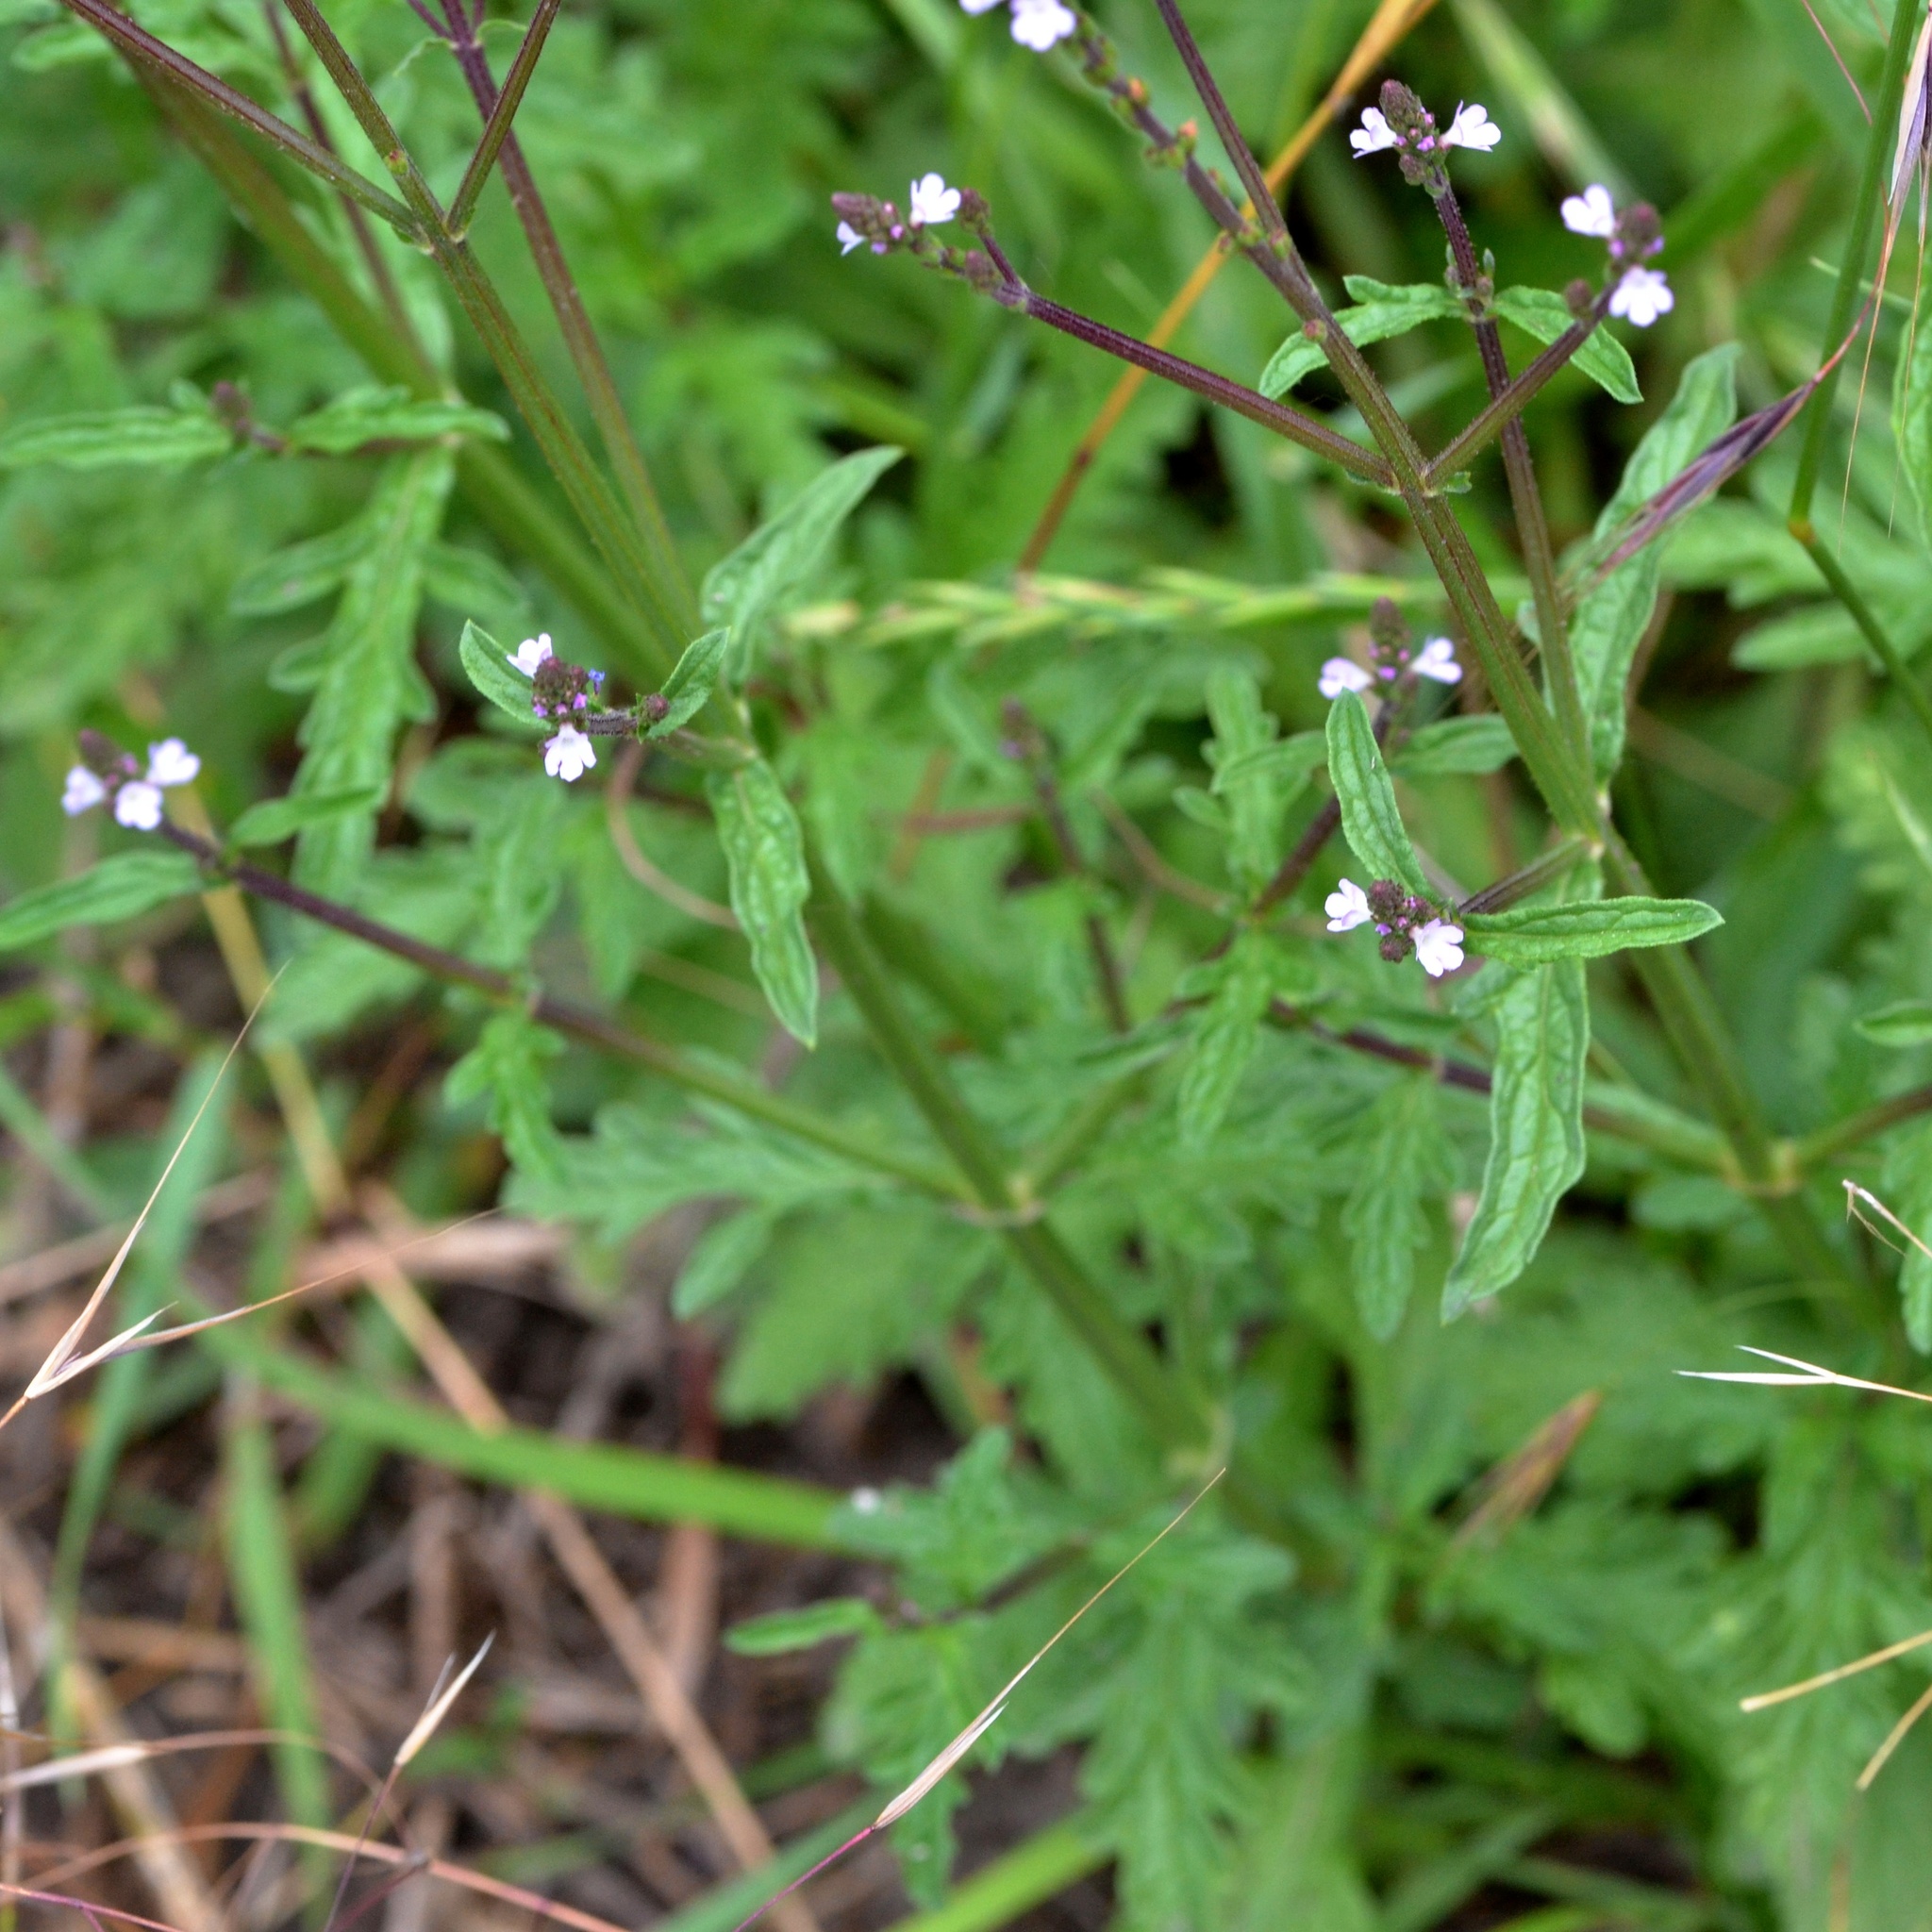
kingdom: Plantae
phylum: Tracheophyta
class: Magnoliopsida
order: Lamiales
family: Verbenaceae
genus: Verbena
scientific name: Verbena officinalis
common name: Vervain
